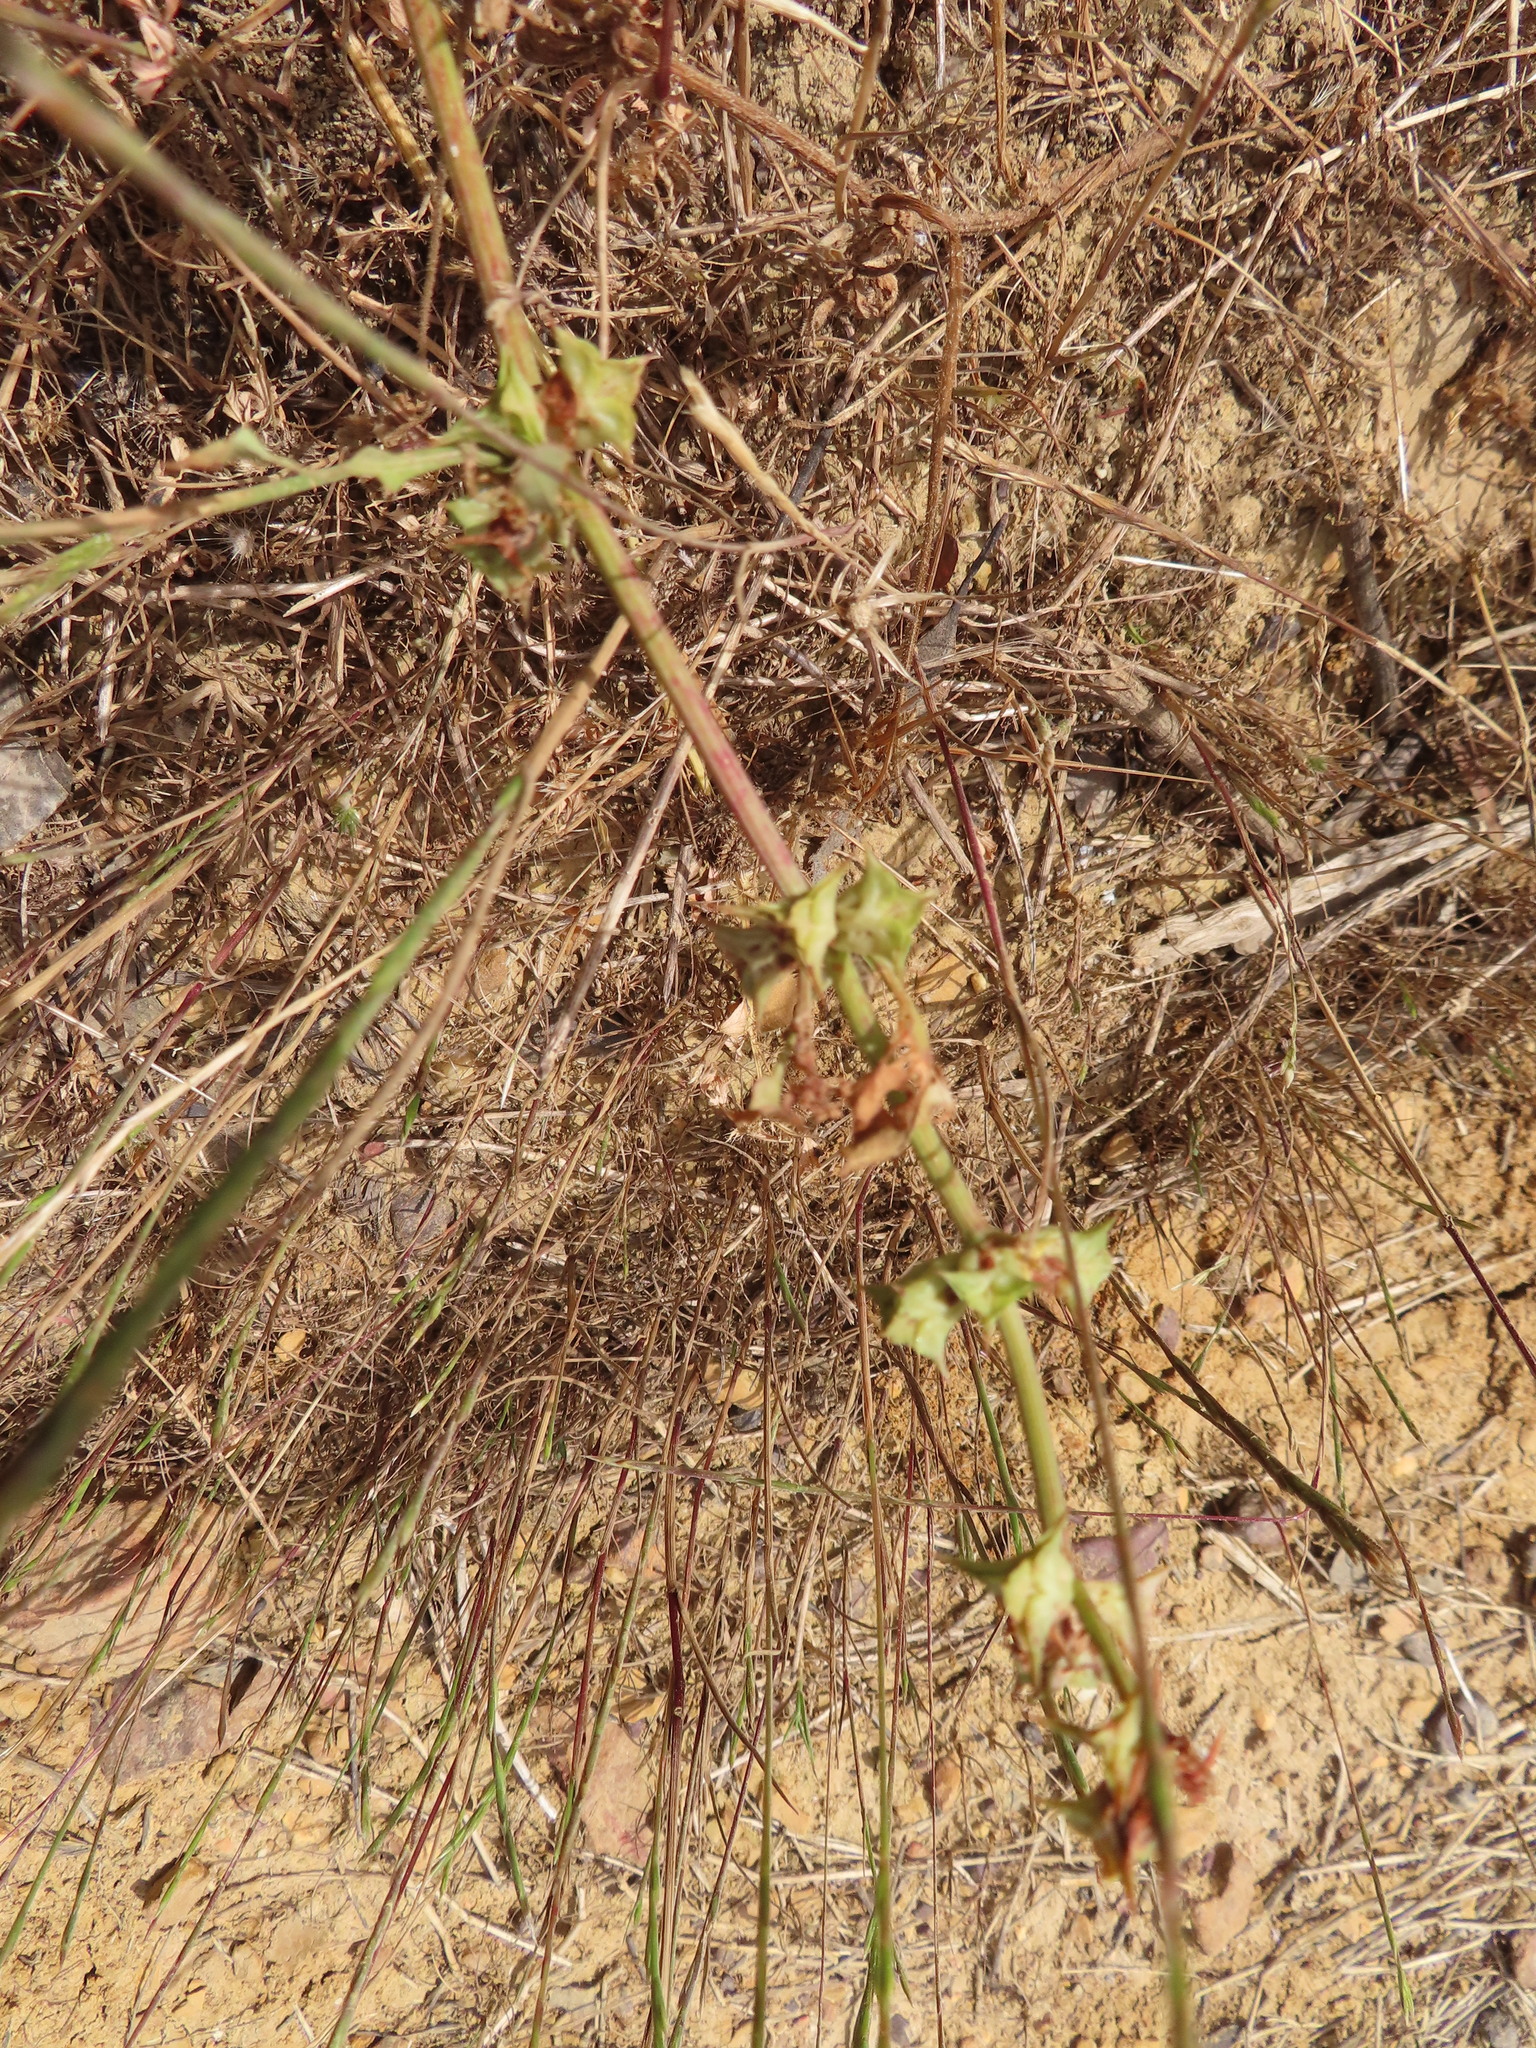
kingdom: Plantae
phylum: Tracheophyta
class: Magnoliopsida
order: Caryophyllales
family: Polygonaceae
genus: Rumex
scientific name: Rumex spinosus
